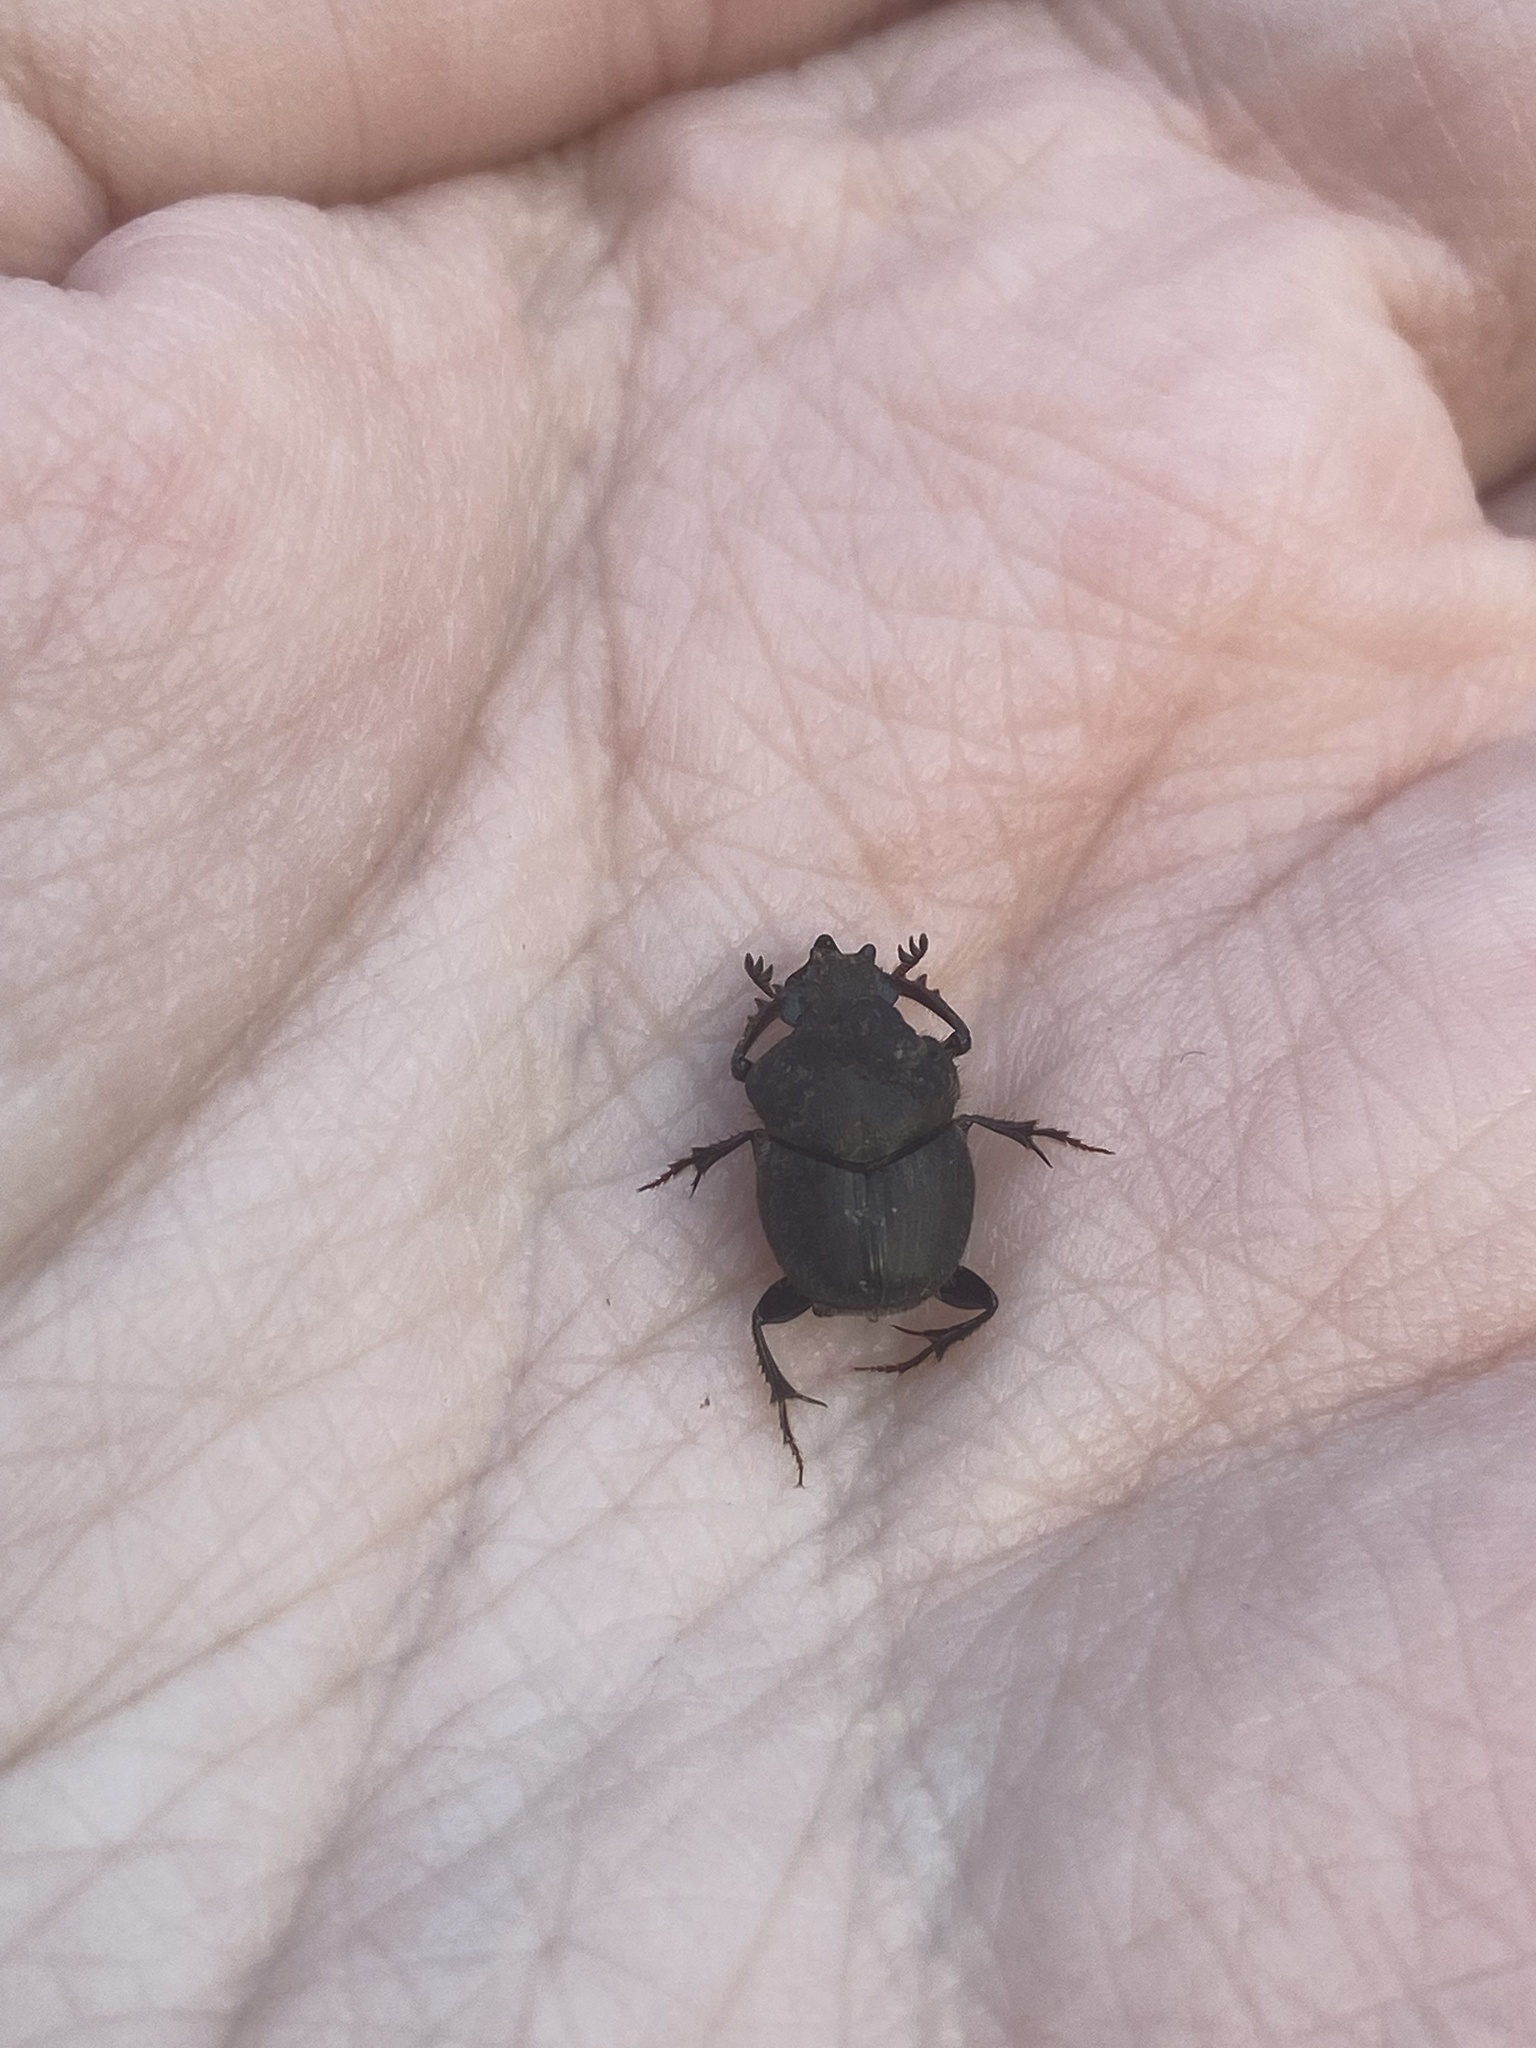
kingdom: Animalia
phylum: Arthropoda
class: Insecta
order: Coleoptera
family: Scarabaeidae
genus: Onthophagus
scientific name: Onthophagus hecate
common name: Scooped scarab
